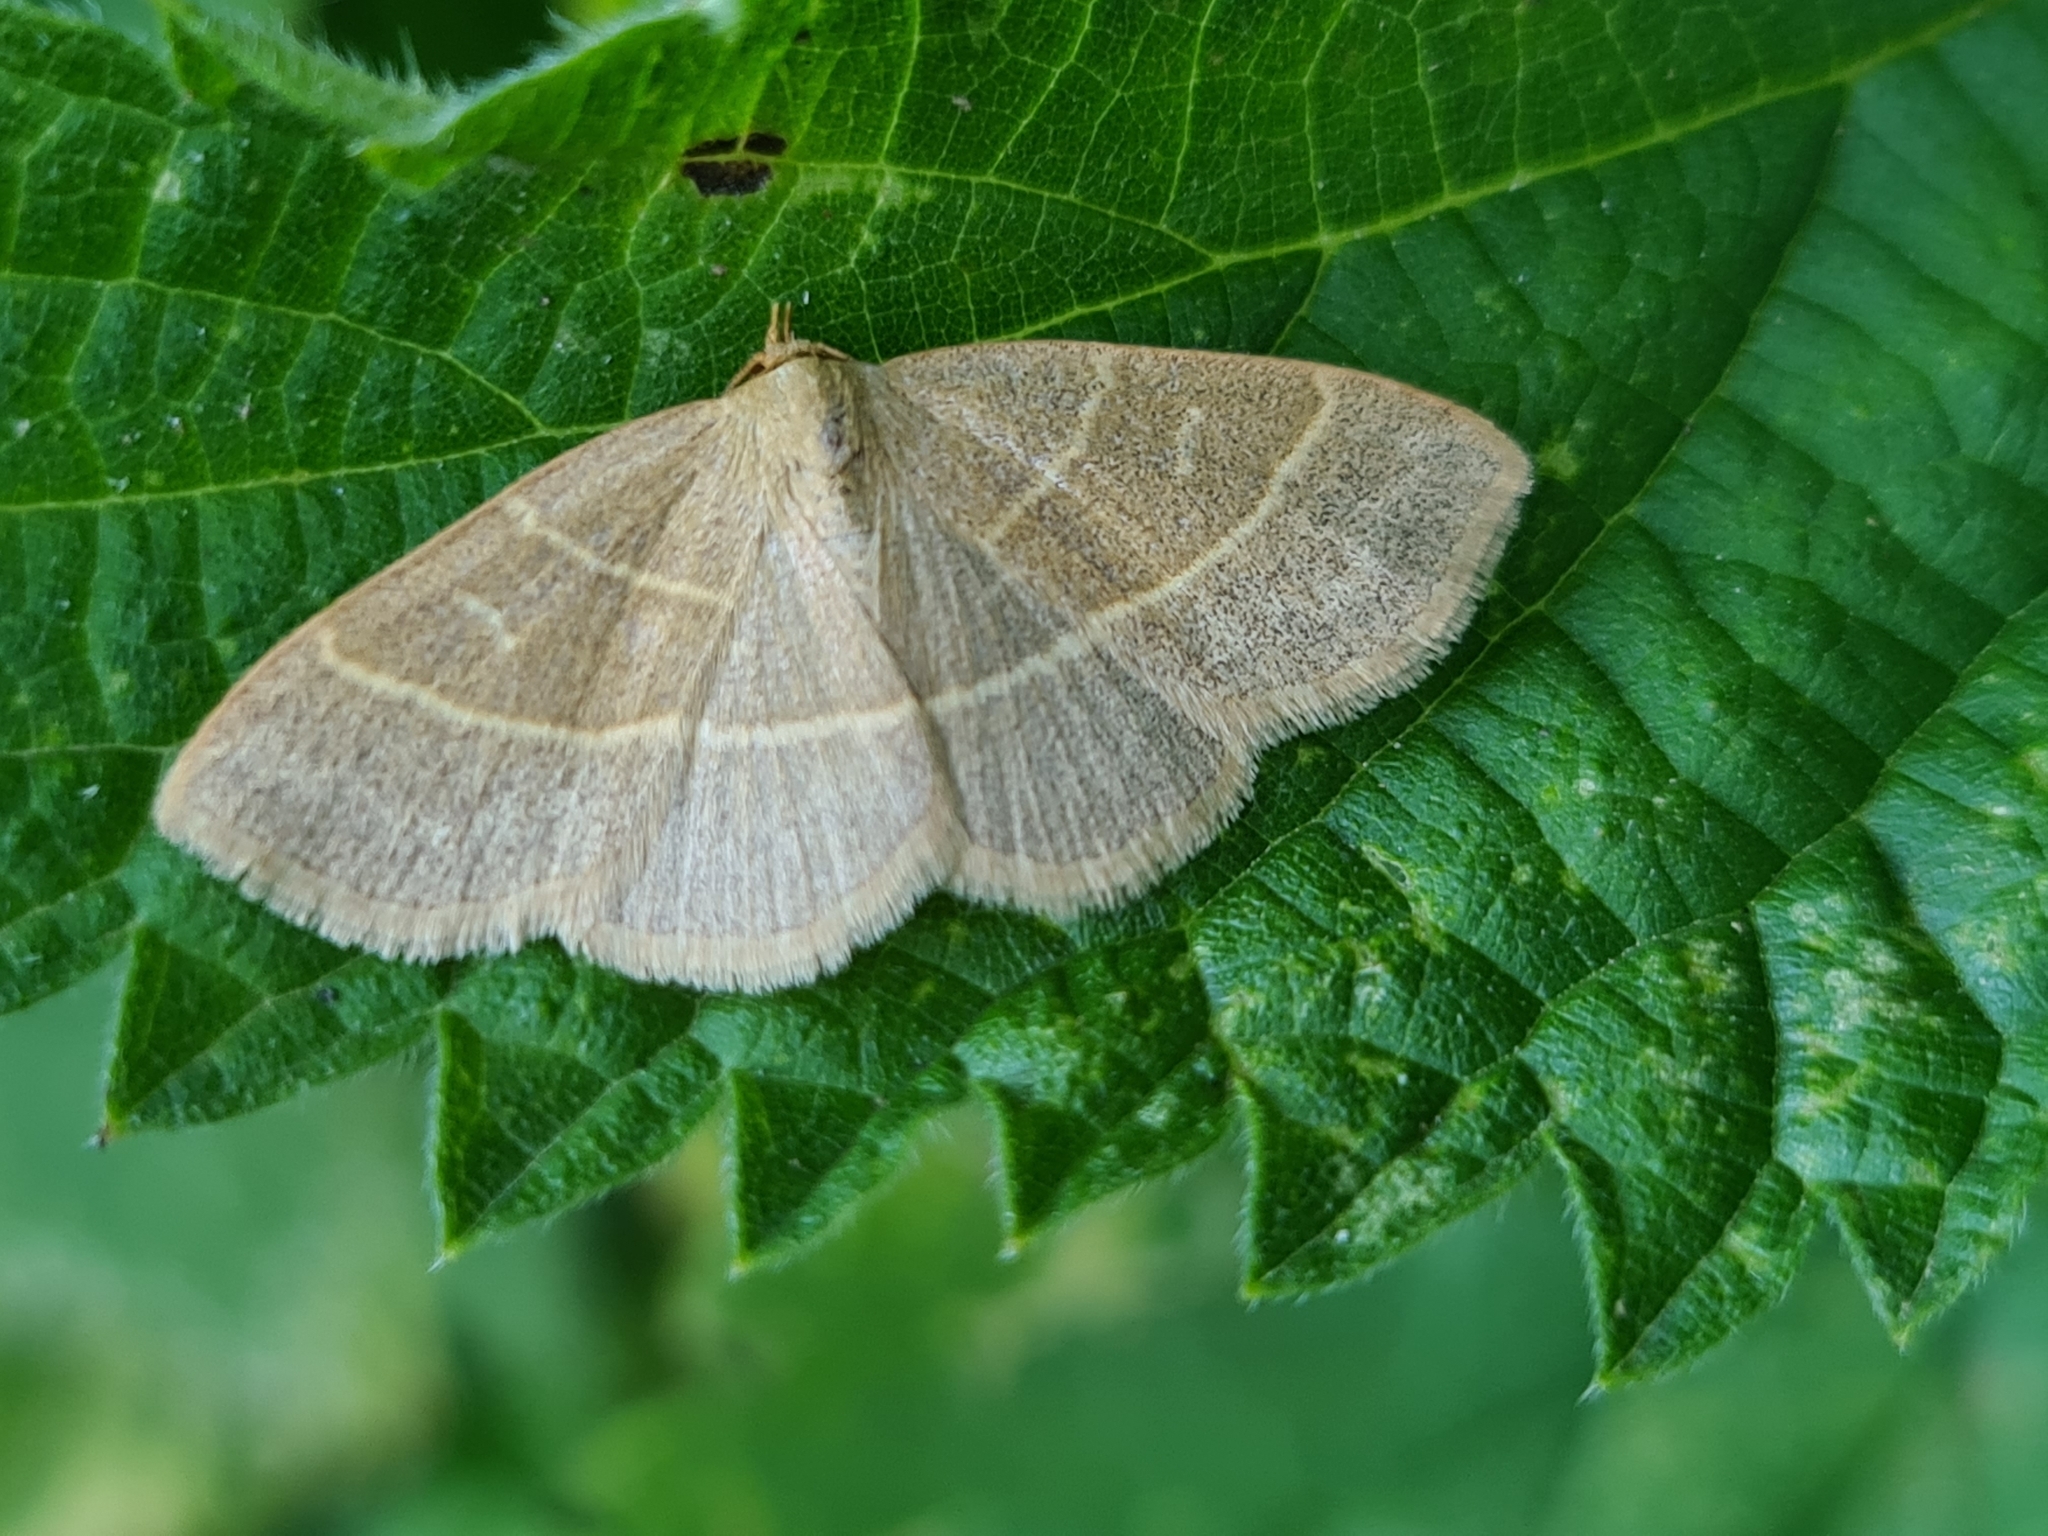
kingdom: Animalia
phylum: Arthropoda
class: Insecta
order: Lepidoptera
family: Erebidae
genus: Trisateles
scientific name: Trisateles emortualis
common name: Olive crescent
